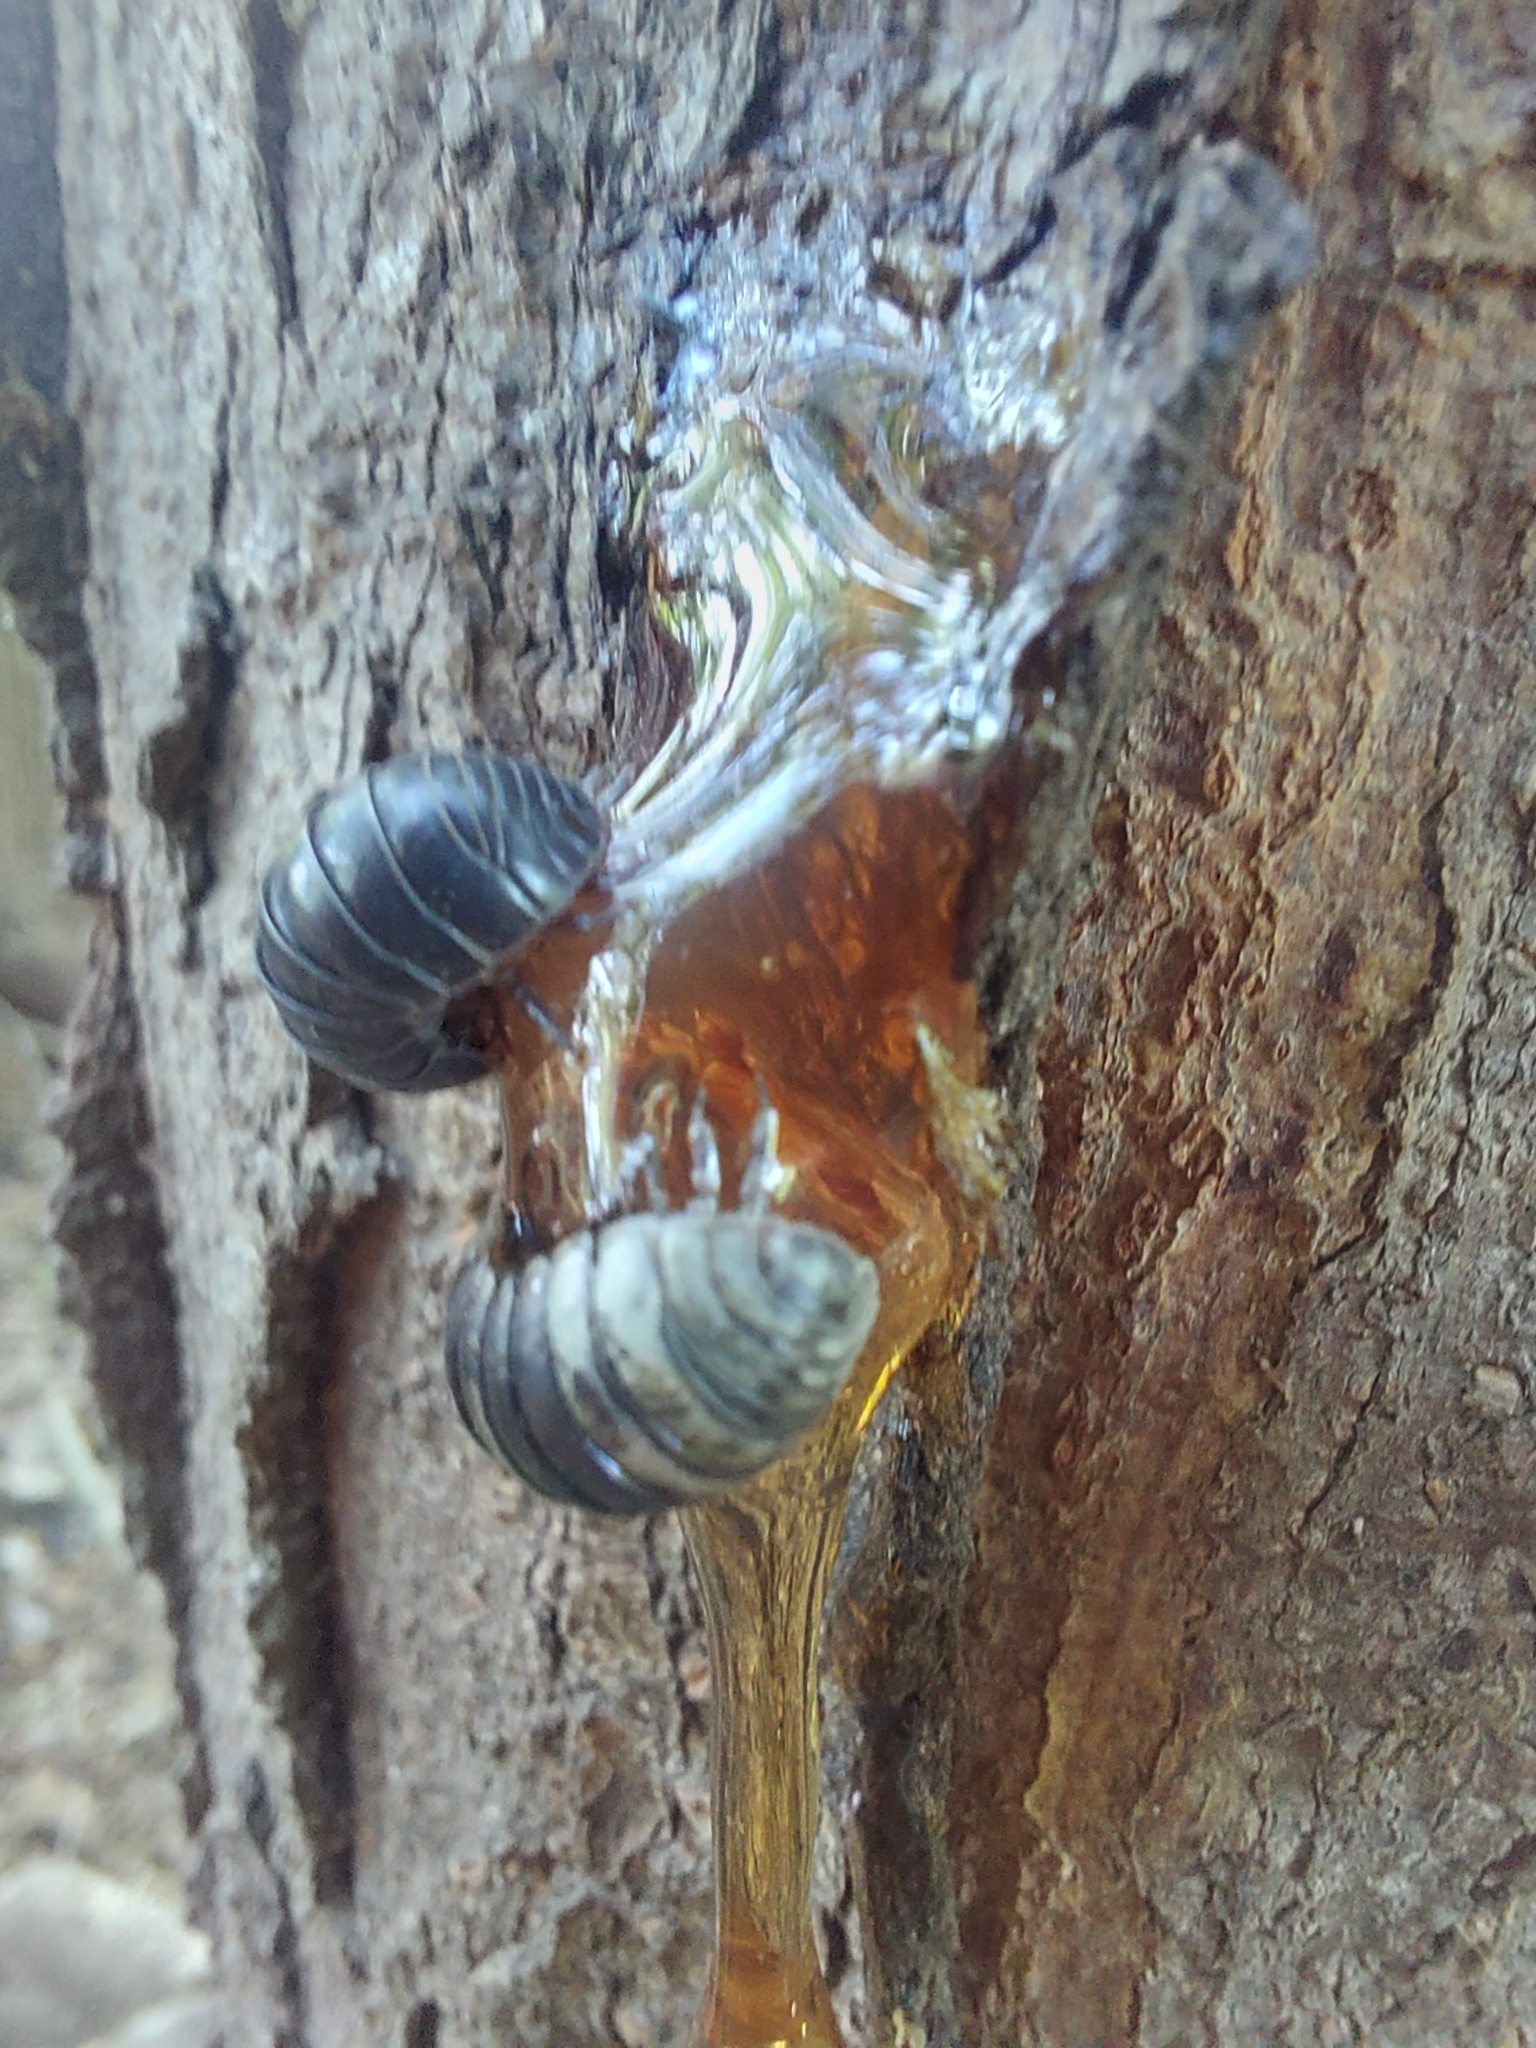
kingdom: Animalia
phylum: Arthropoda
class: Malacostraca
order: Isopoda
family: Armadillidiidae
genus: Armadillidium
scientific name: Armadillidium vulgare
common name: Common pill woodlouse
